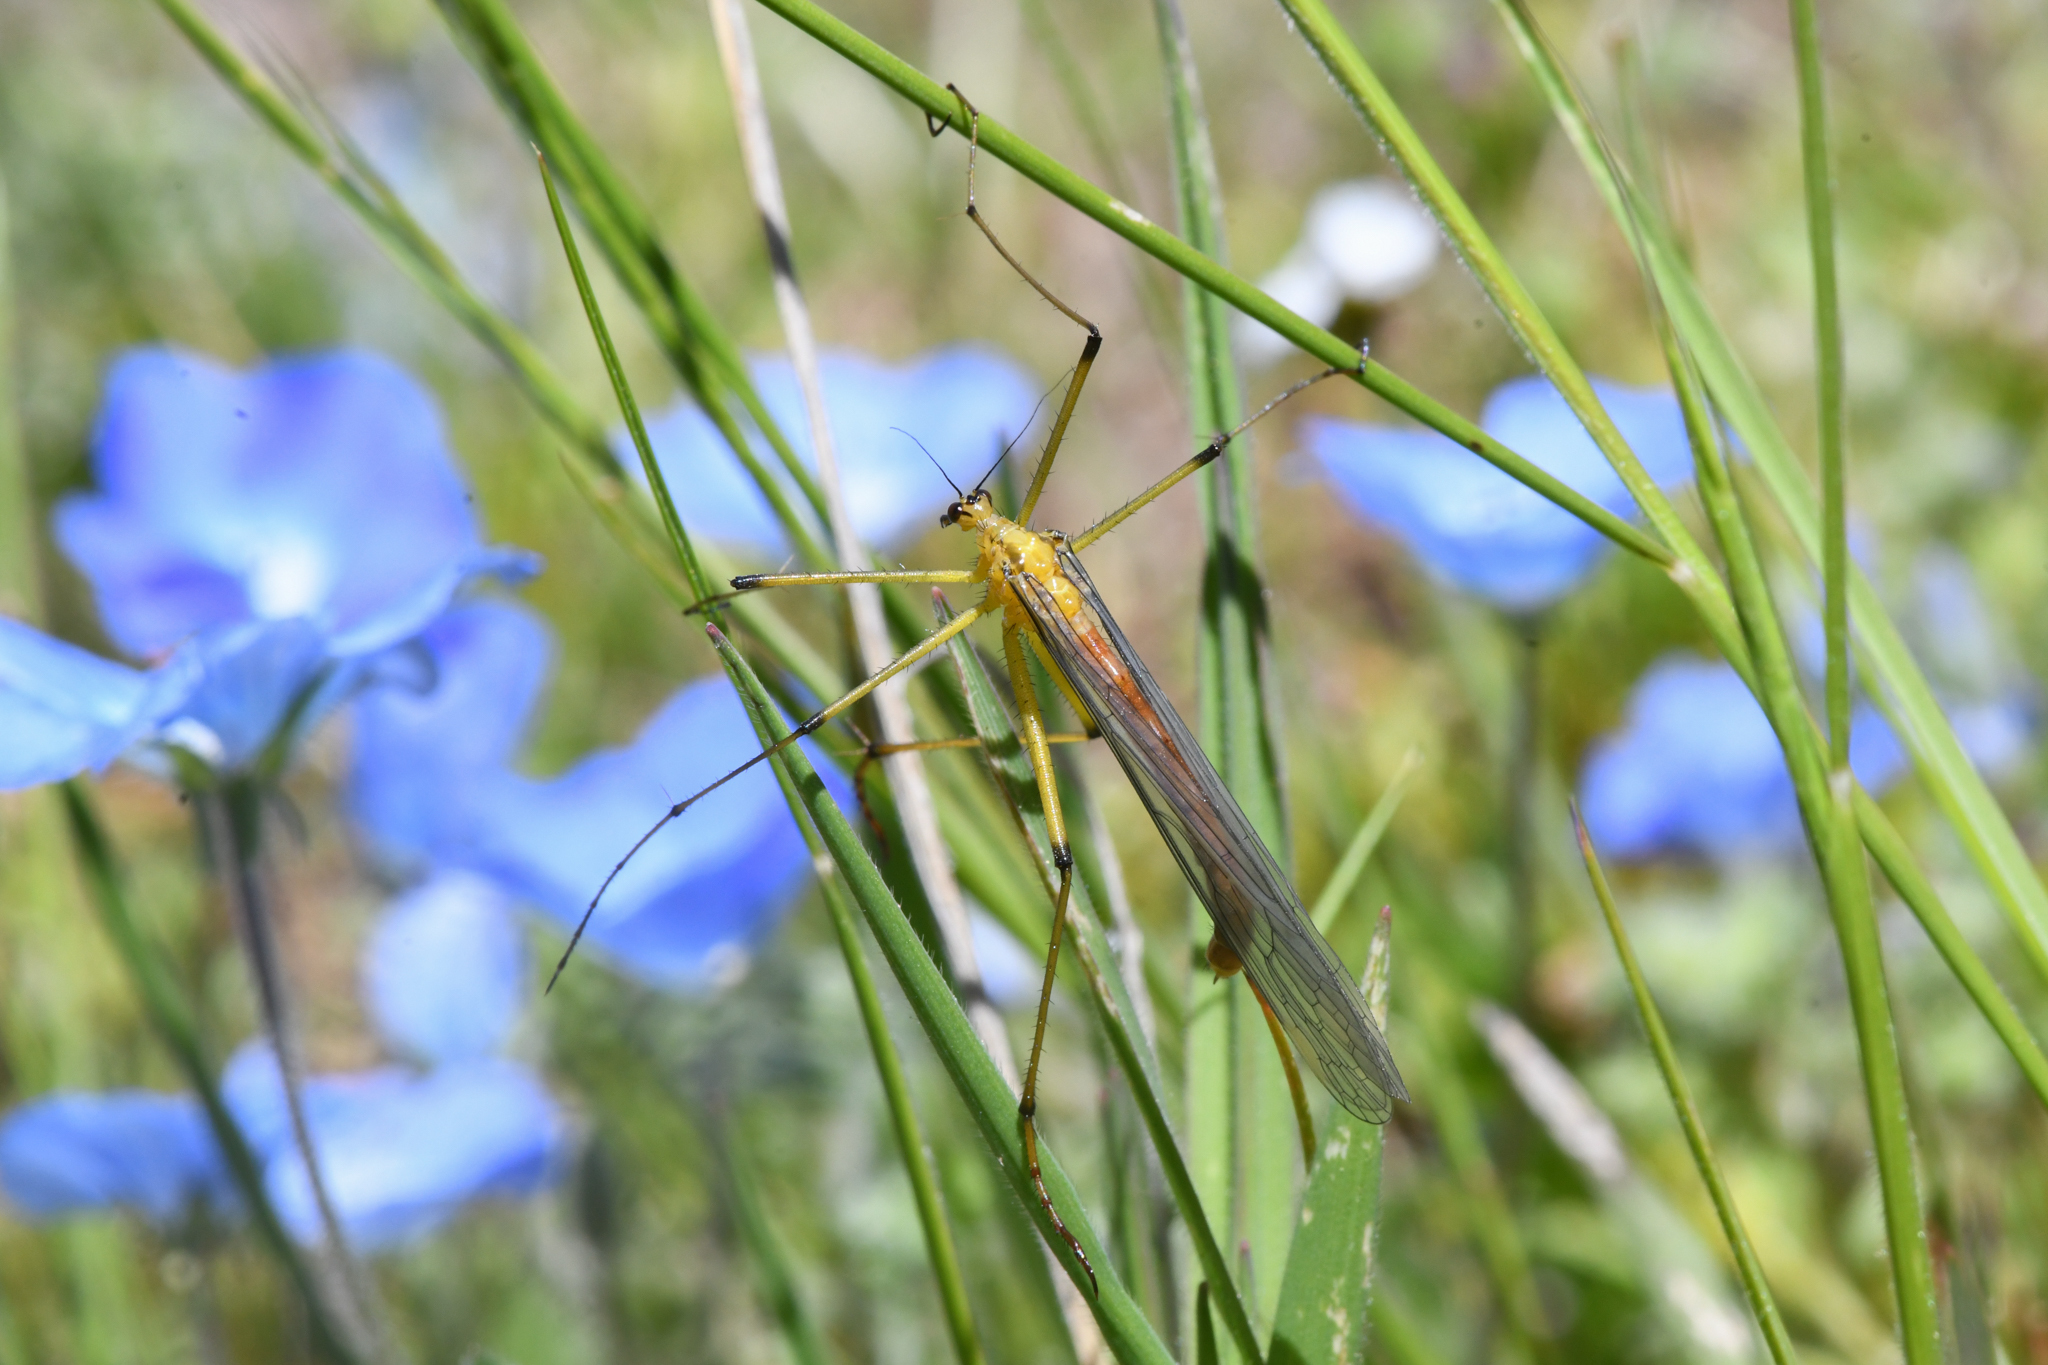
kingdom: Animalia
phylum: Arthropoda
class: Insecta
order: Mecoptera
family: Bittacidae
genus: Bittacus
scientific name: Bittacus chlorostigma
